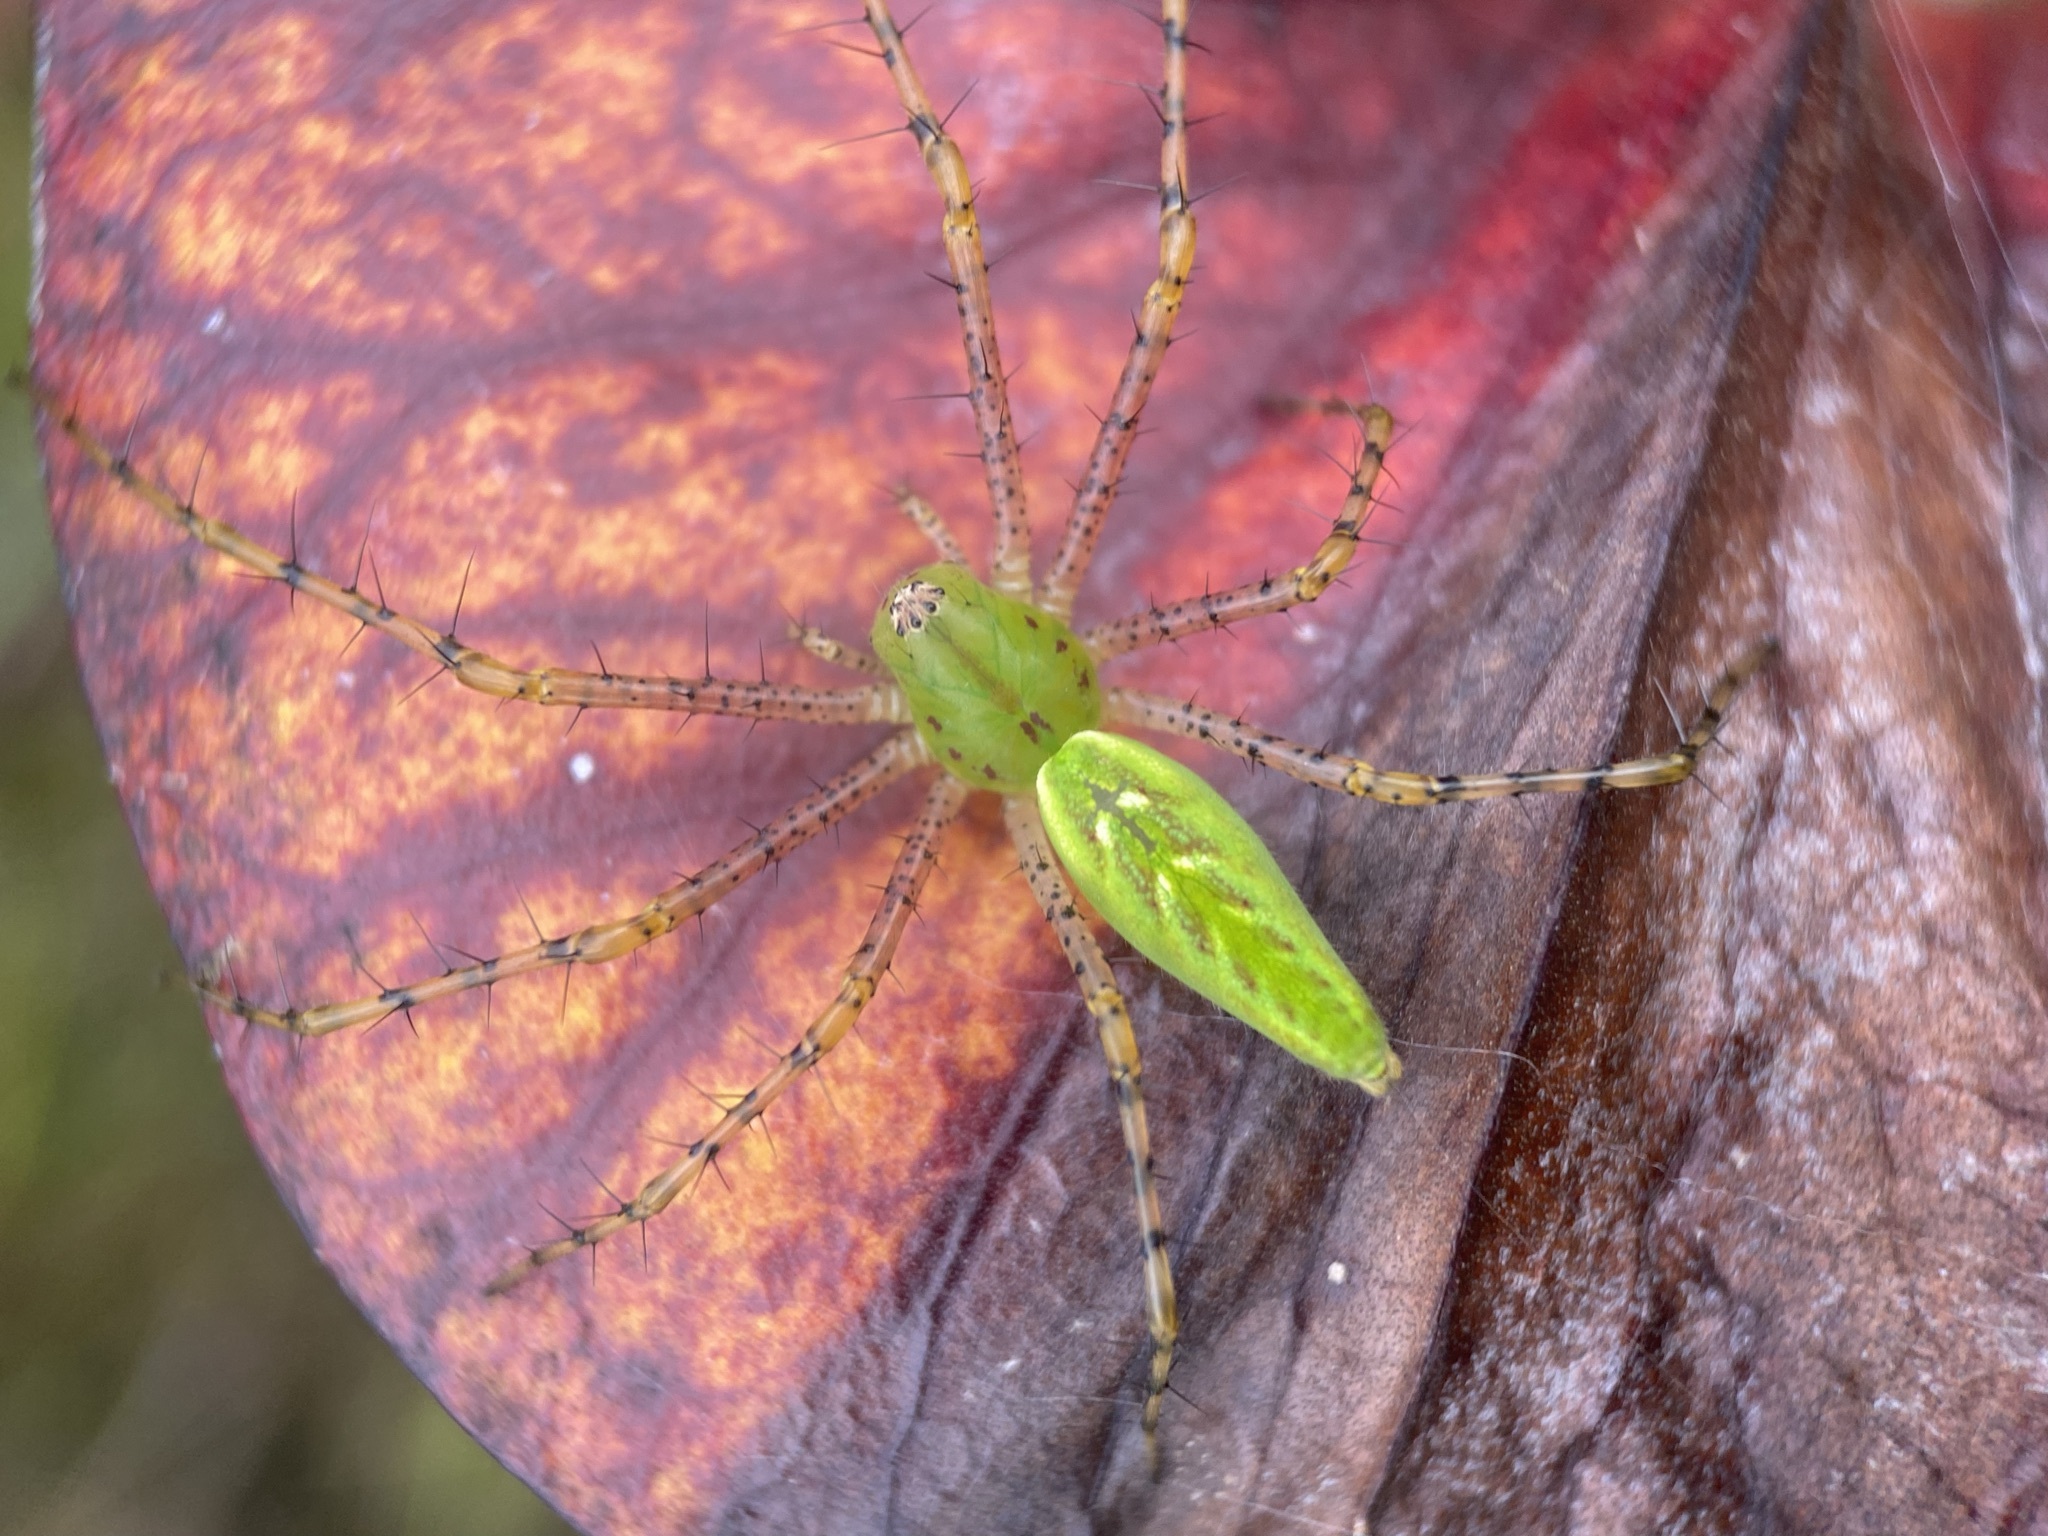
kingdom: Animalia
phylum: Arthropoda
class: Arachnida
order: Araneae
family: Oxyopidae
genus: Peucetia
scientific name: Peucetia viridans
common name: Lynx spiders
